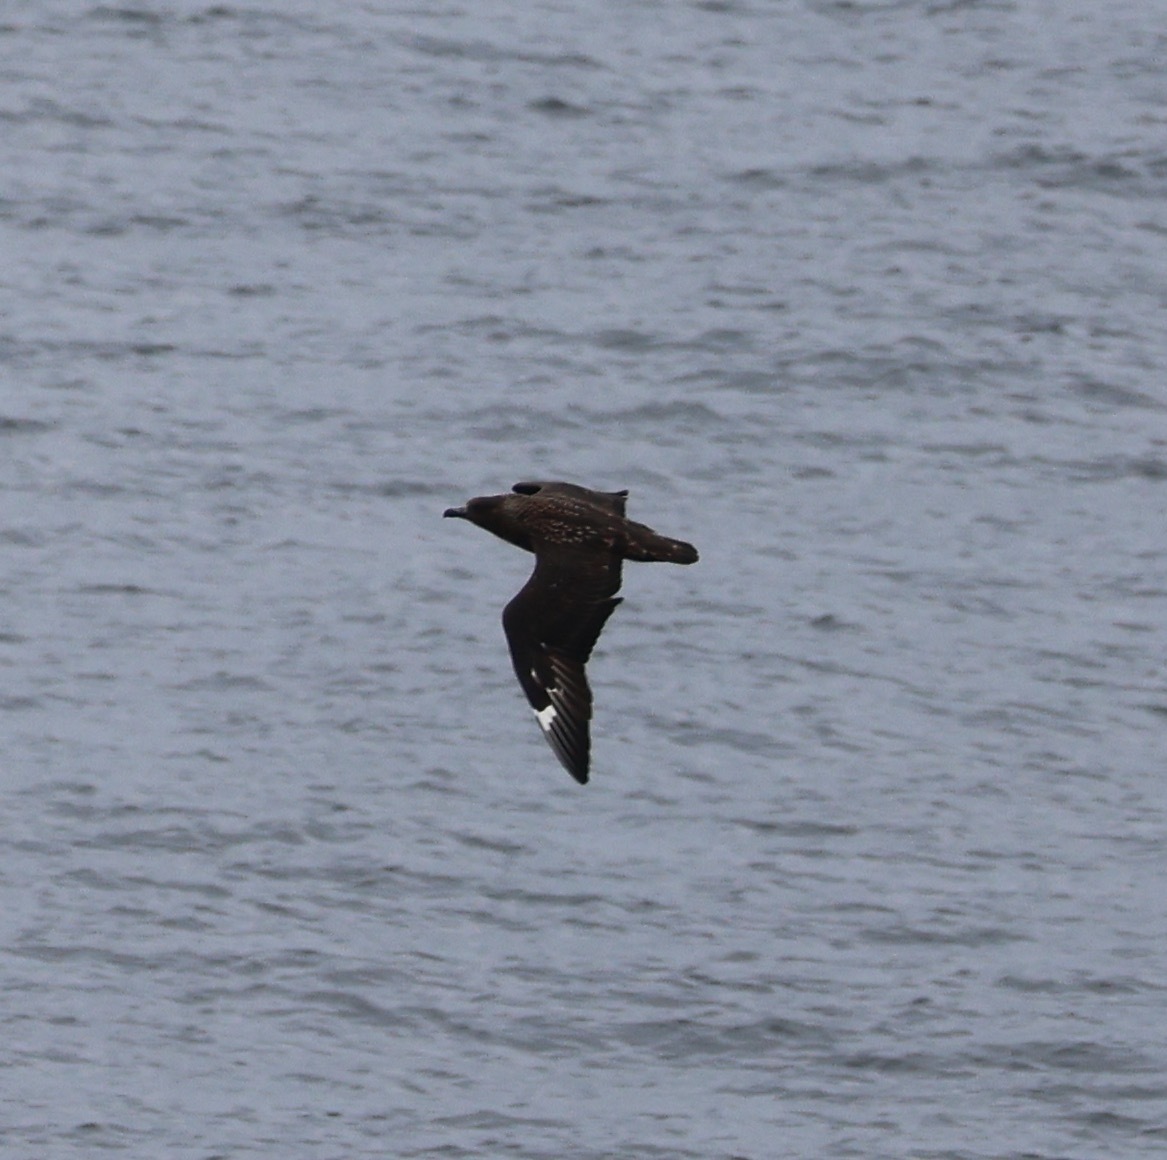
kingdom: Animalia
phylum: Chordata
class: Aves
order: Charadriiformes
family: Stercorariidae
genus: Stercorarius
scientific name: Stercorarius skua
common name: Great skua
